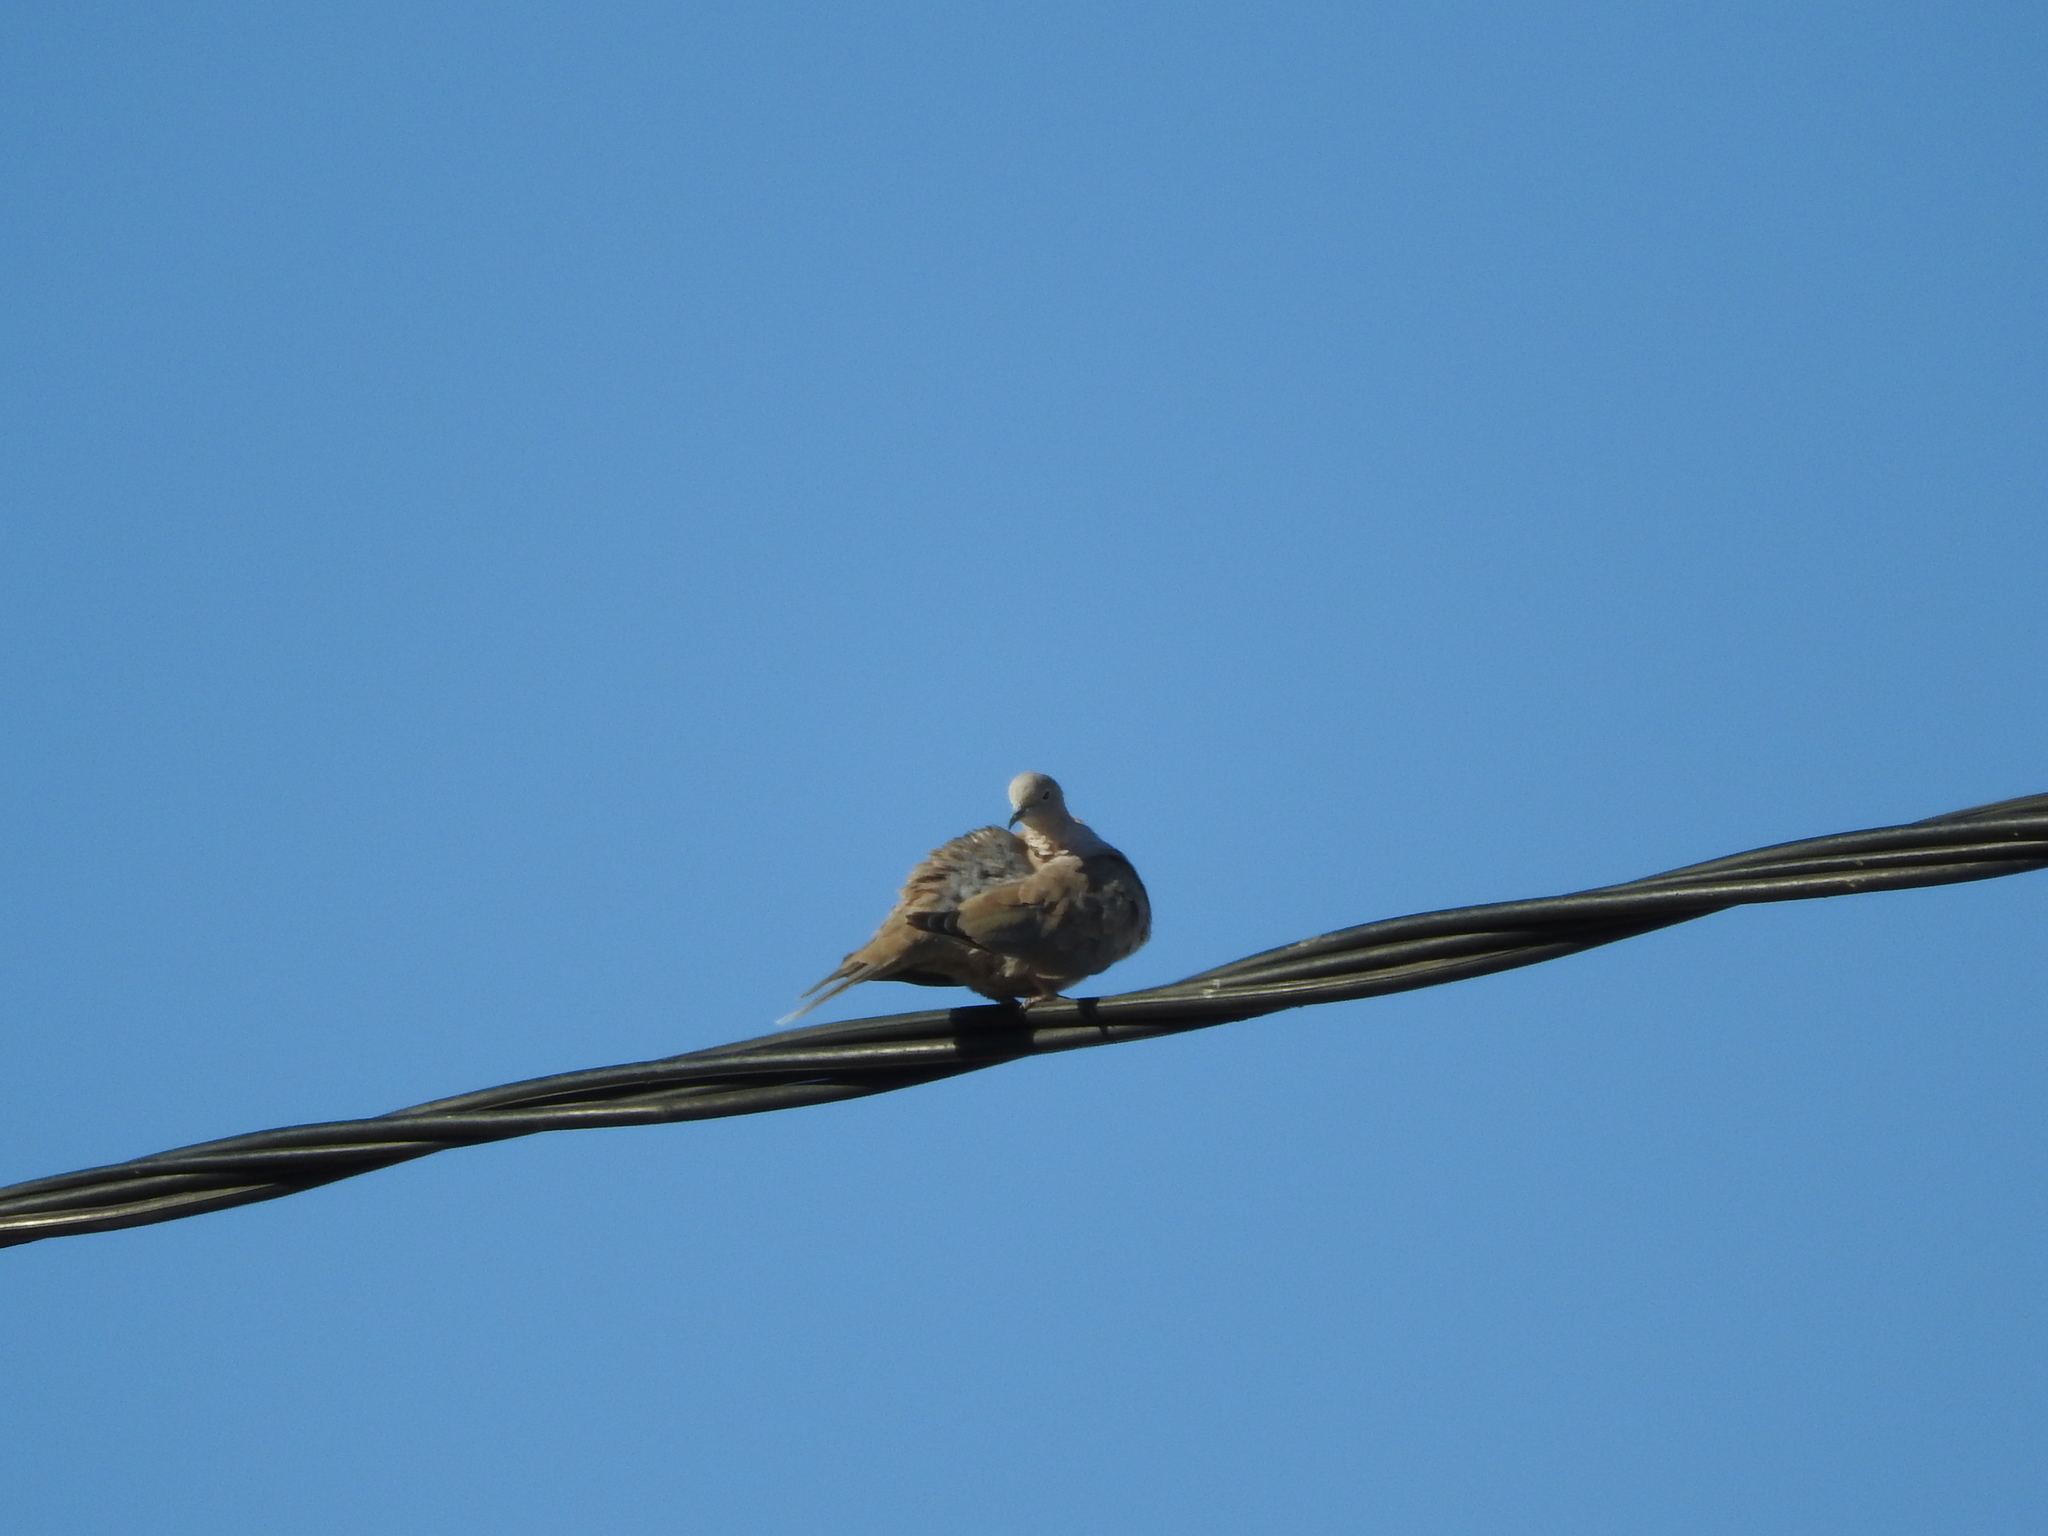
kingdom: Animalia
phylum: Chordata
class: Aves
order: Columbiformes
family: Columbidae
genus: Streptopelia
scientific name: Streptopelia decaocto
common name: Eurasian collared dove
